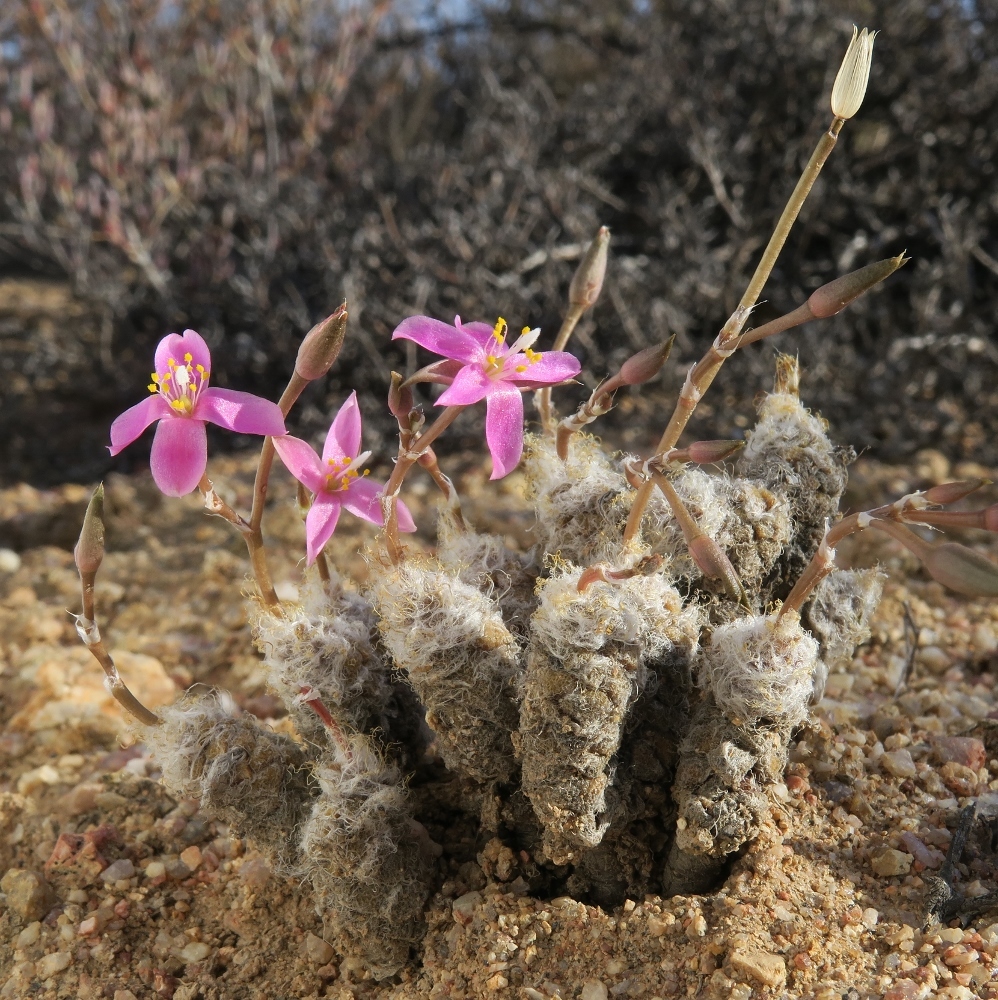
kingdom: Plantae
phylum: Tracheophyta
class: Magnoliopsida
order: Caryophyllales
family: Anacampserotaceae
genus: Anacampseros
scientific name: Anacampseros filamentosa
